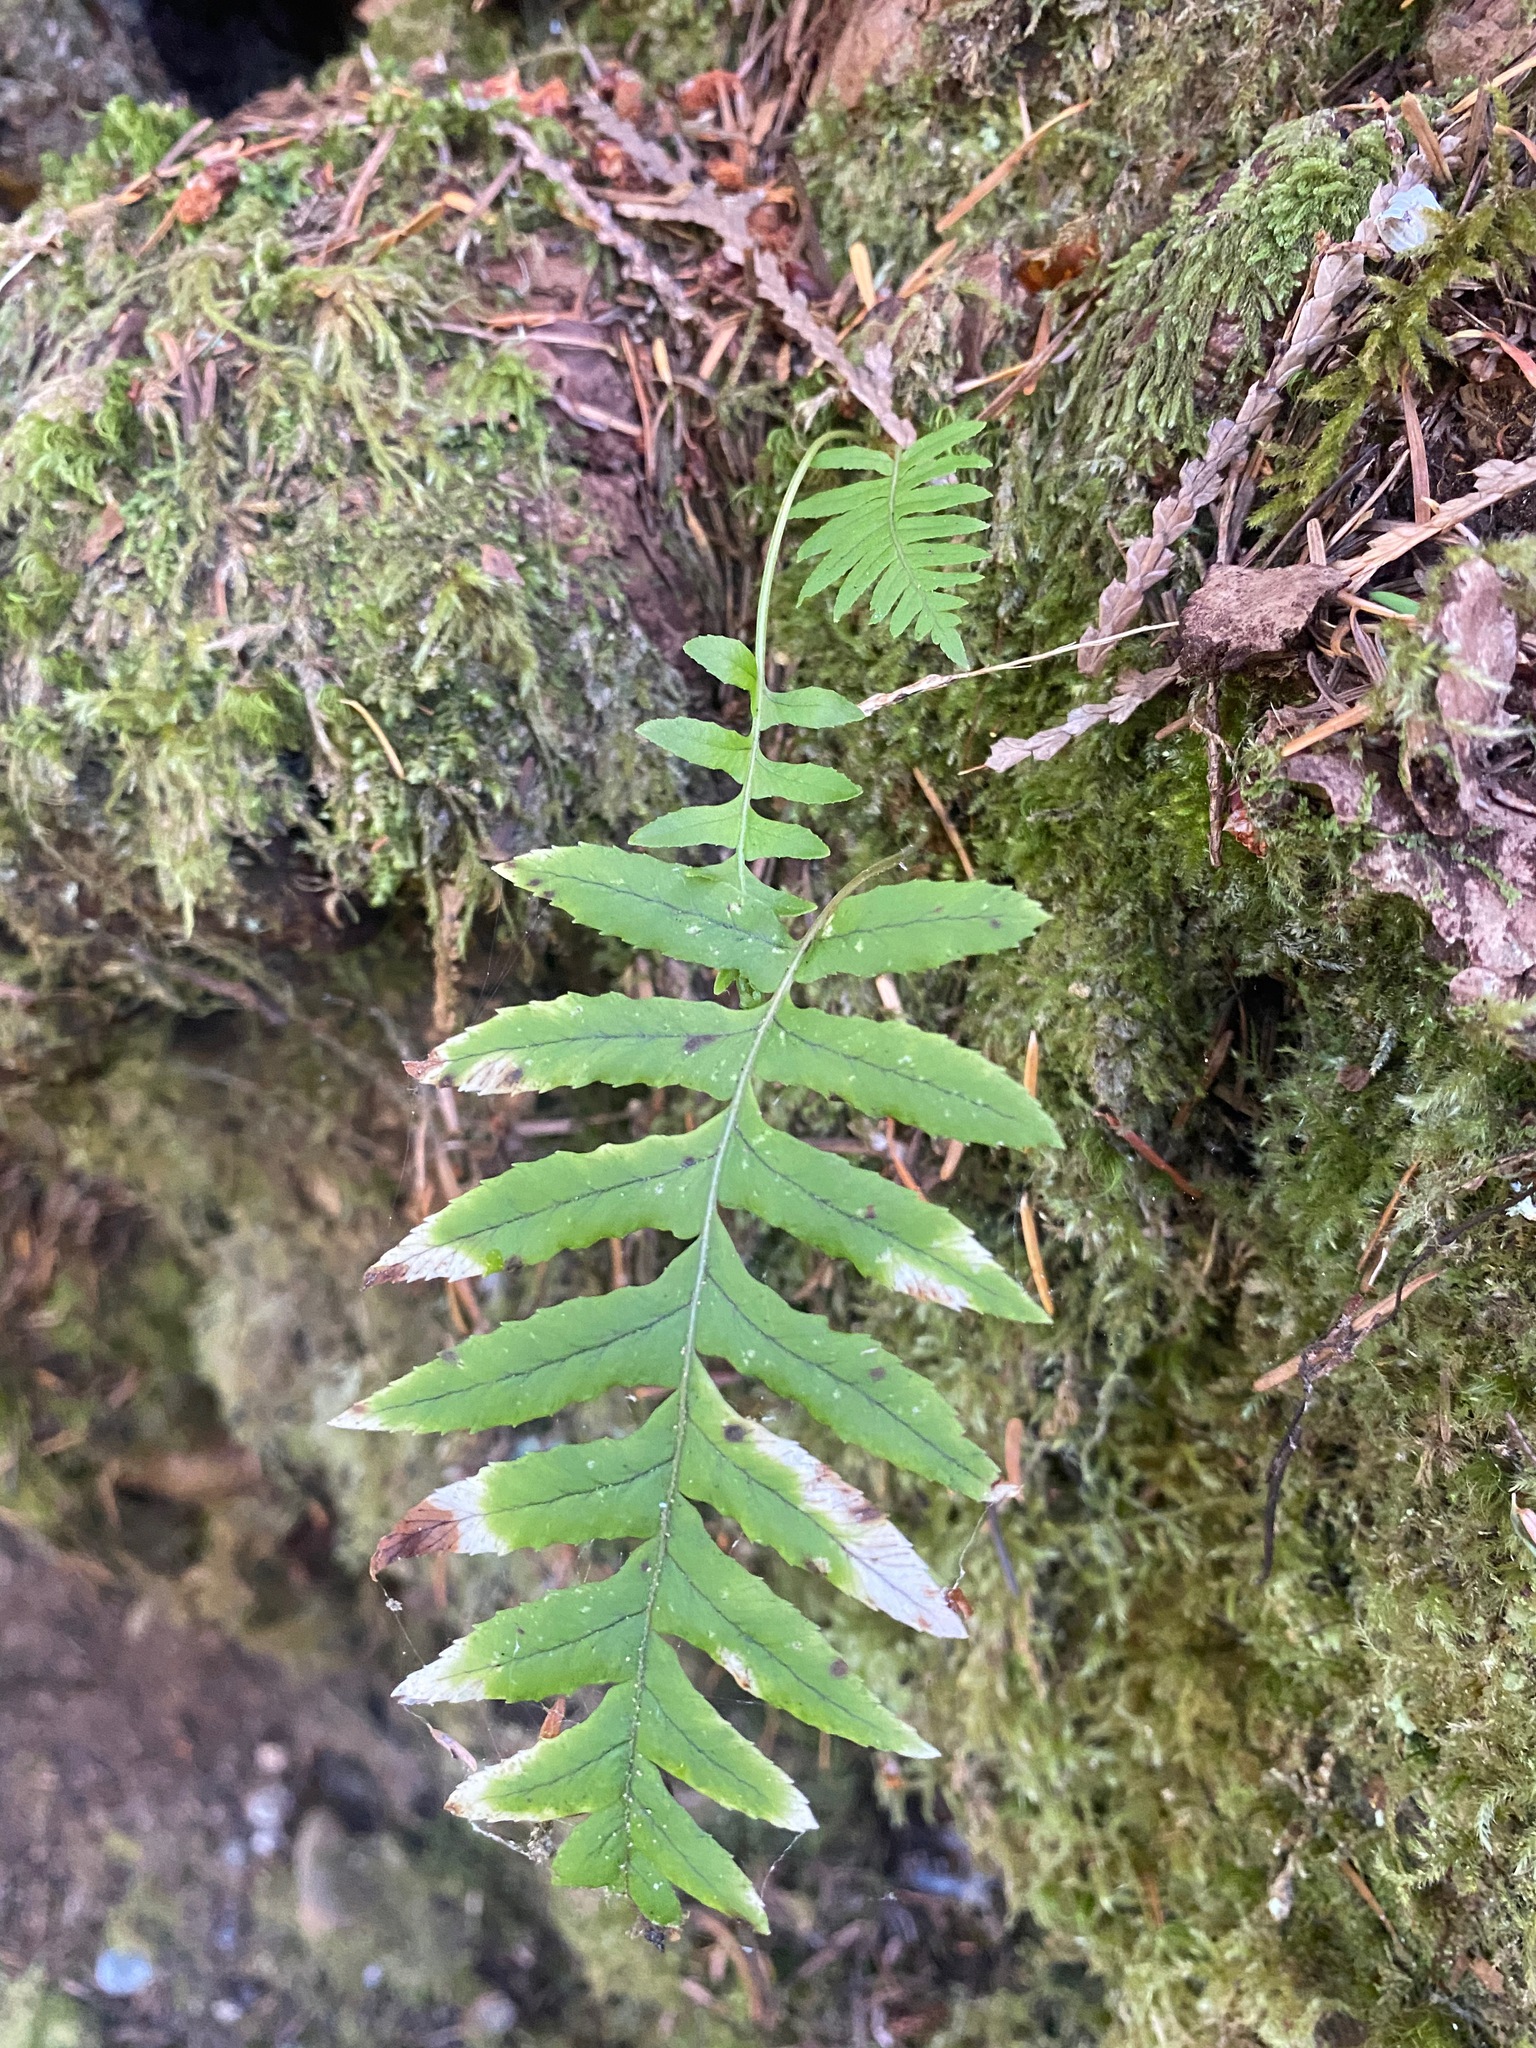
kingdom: Plantae
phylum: Tracheophyta
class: Polypodiopsida
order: Polypodiales
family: Polypodiaceae
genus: Polypodium
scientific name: Polypodium glycyrrhiza
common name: Licorice fern
